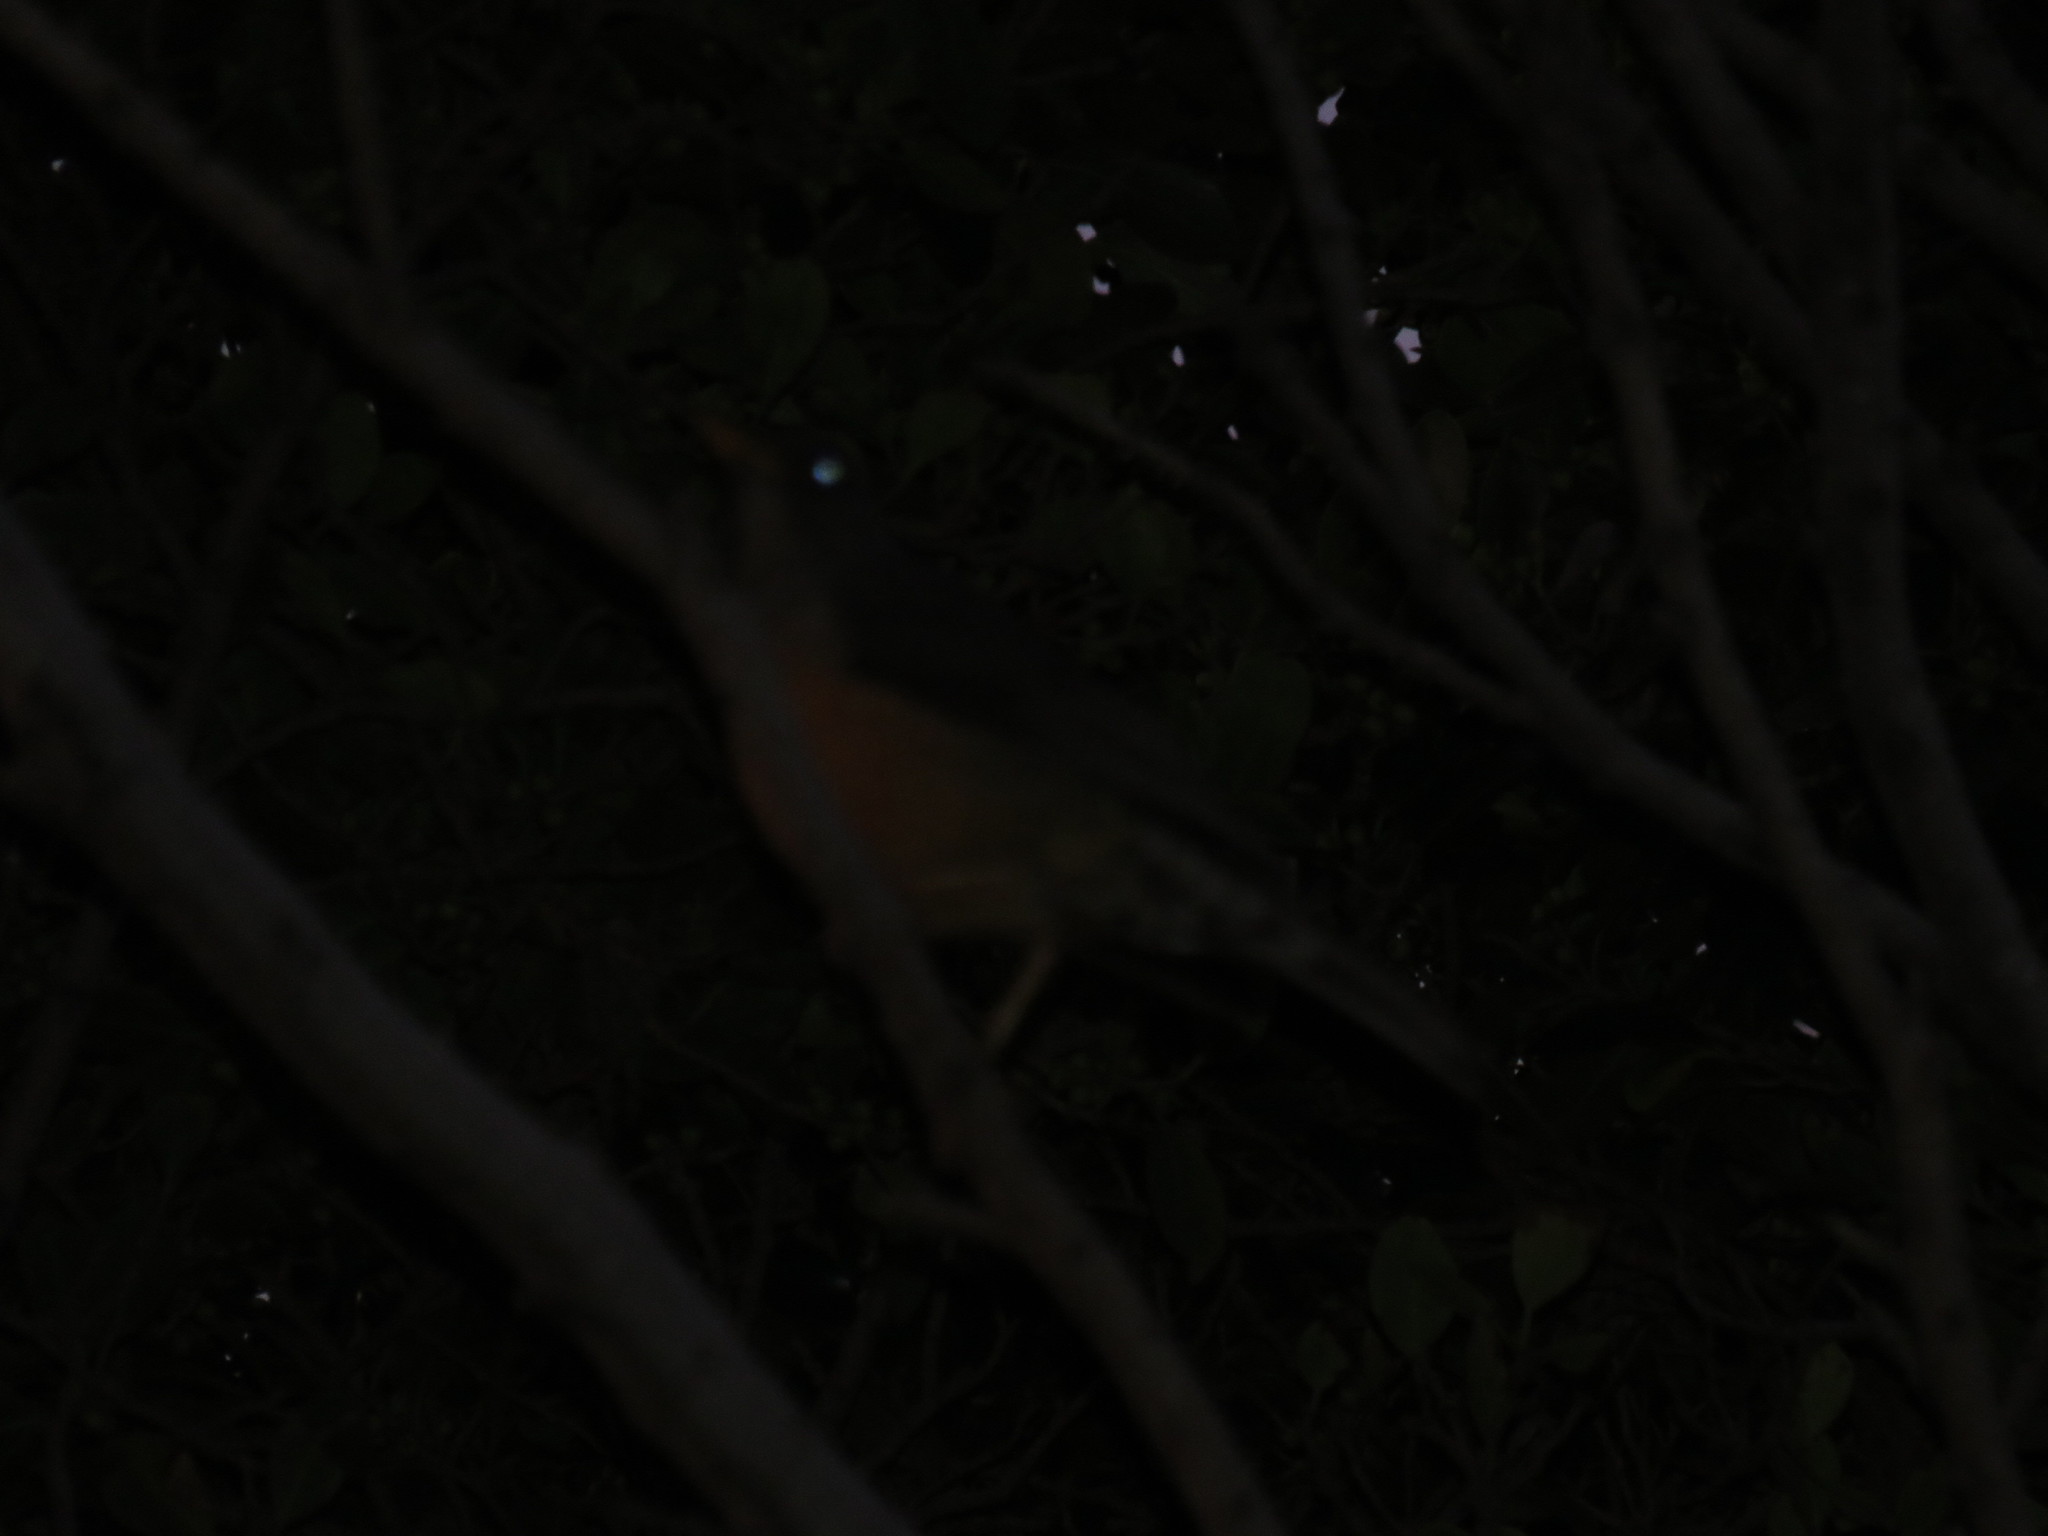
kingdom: Animalia
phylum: Chordata
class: Aves
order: Passeriformes
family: Turdidae
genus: Turdus
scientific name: Turdus olivaceus
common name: Olive thrush
